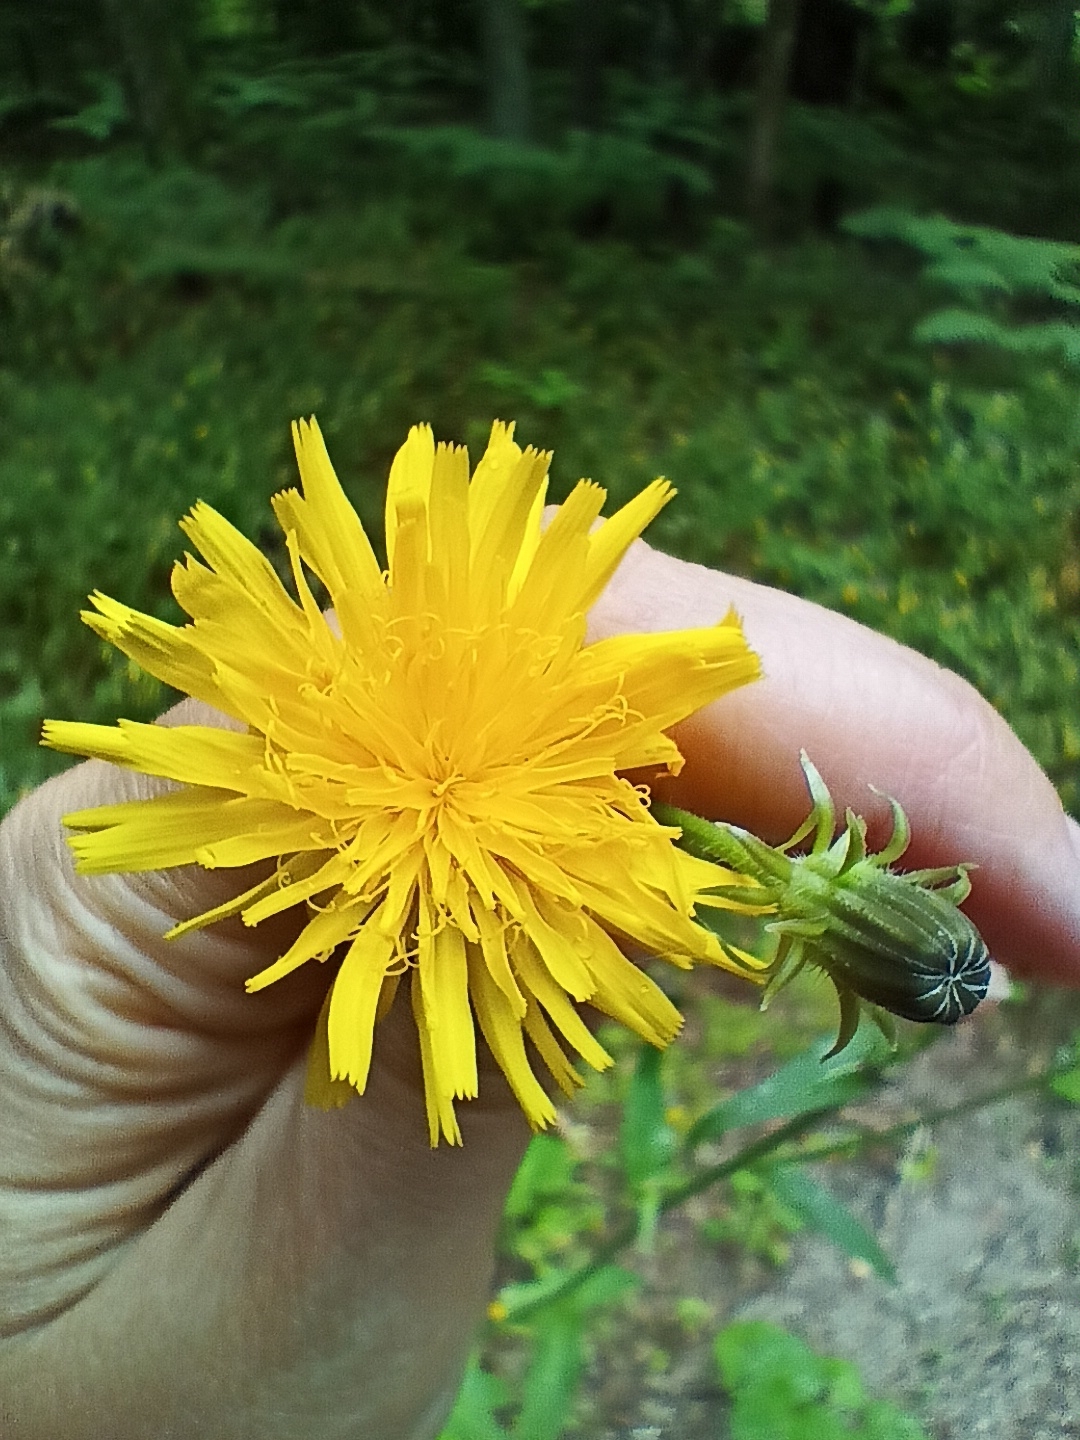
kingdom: Plantae
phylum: Tracheophyta
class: Magnoliopsida
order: Asterales
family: Asteraceae
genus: Picris
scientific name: Picris hieracioides
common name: Hawkweed oxtongue
